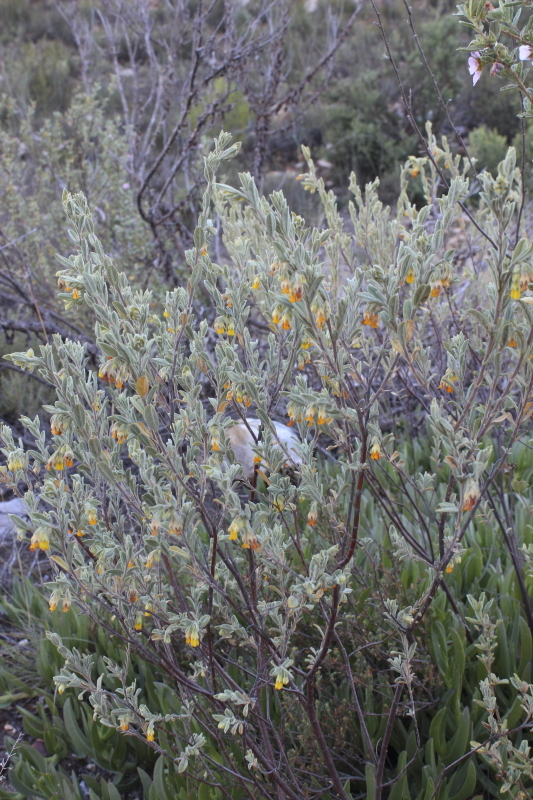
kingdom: Plantae
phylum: Tracheophyta
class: Magnoliopsida
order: Malvales
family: Malvaceae
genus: Hermannia
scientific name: Hermannia velutina
